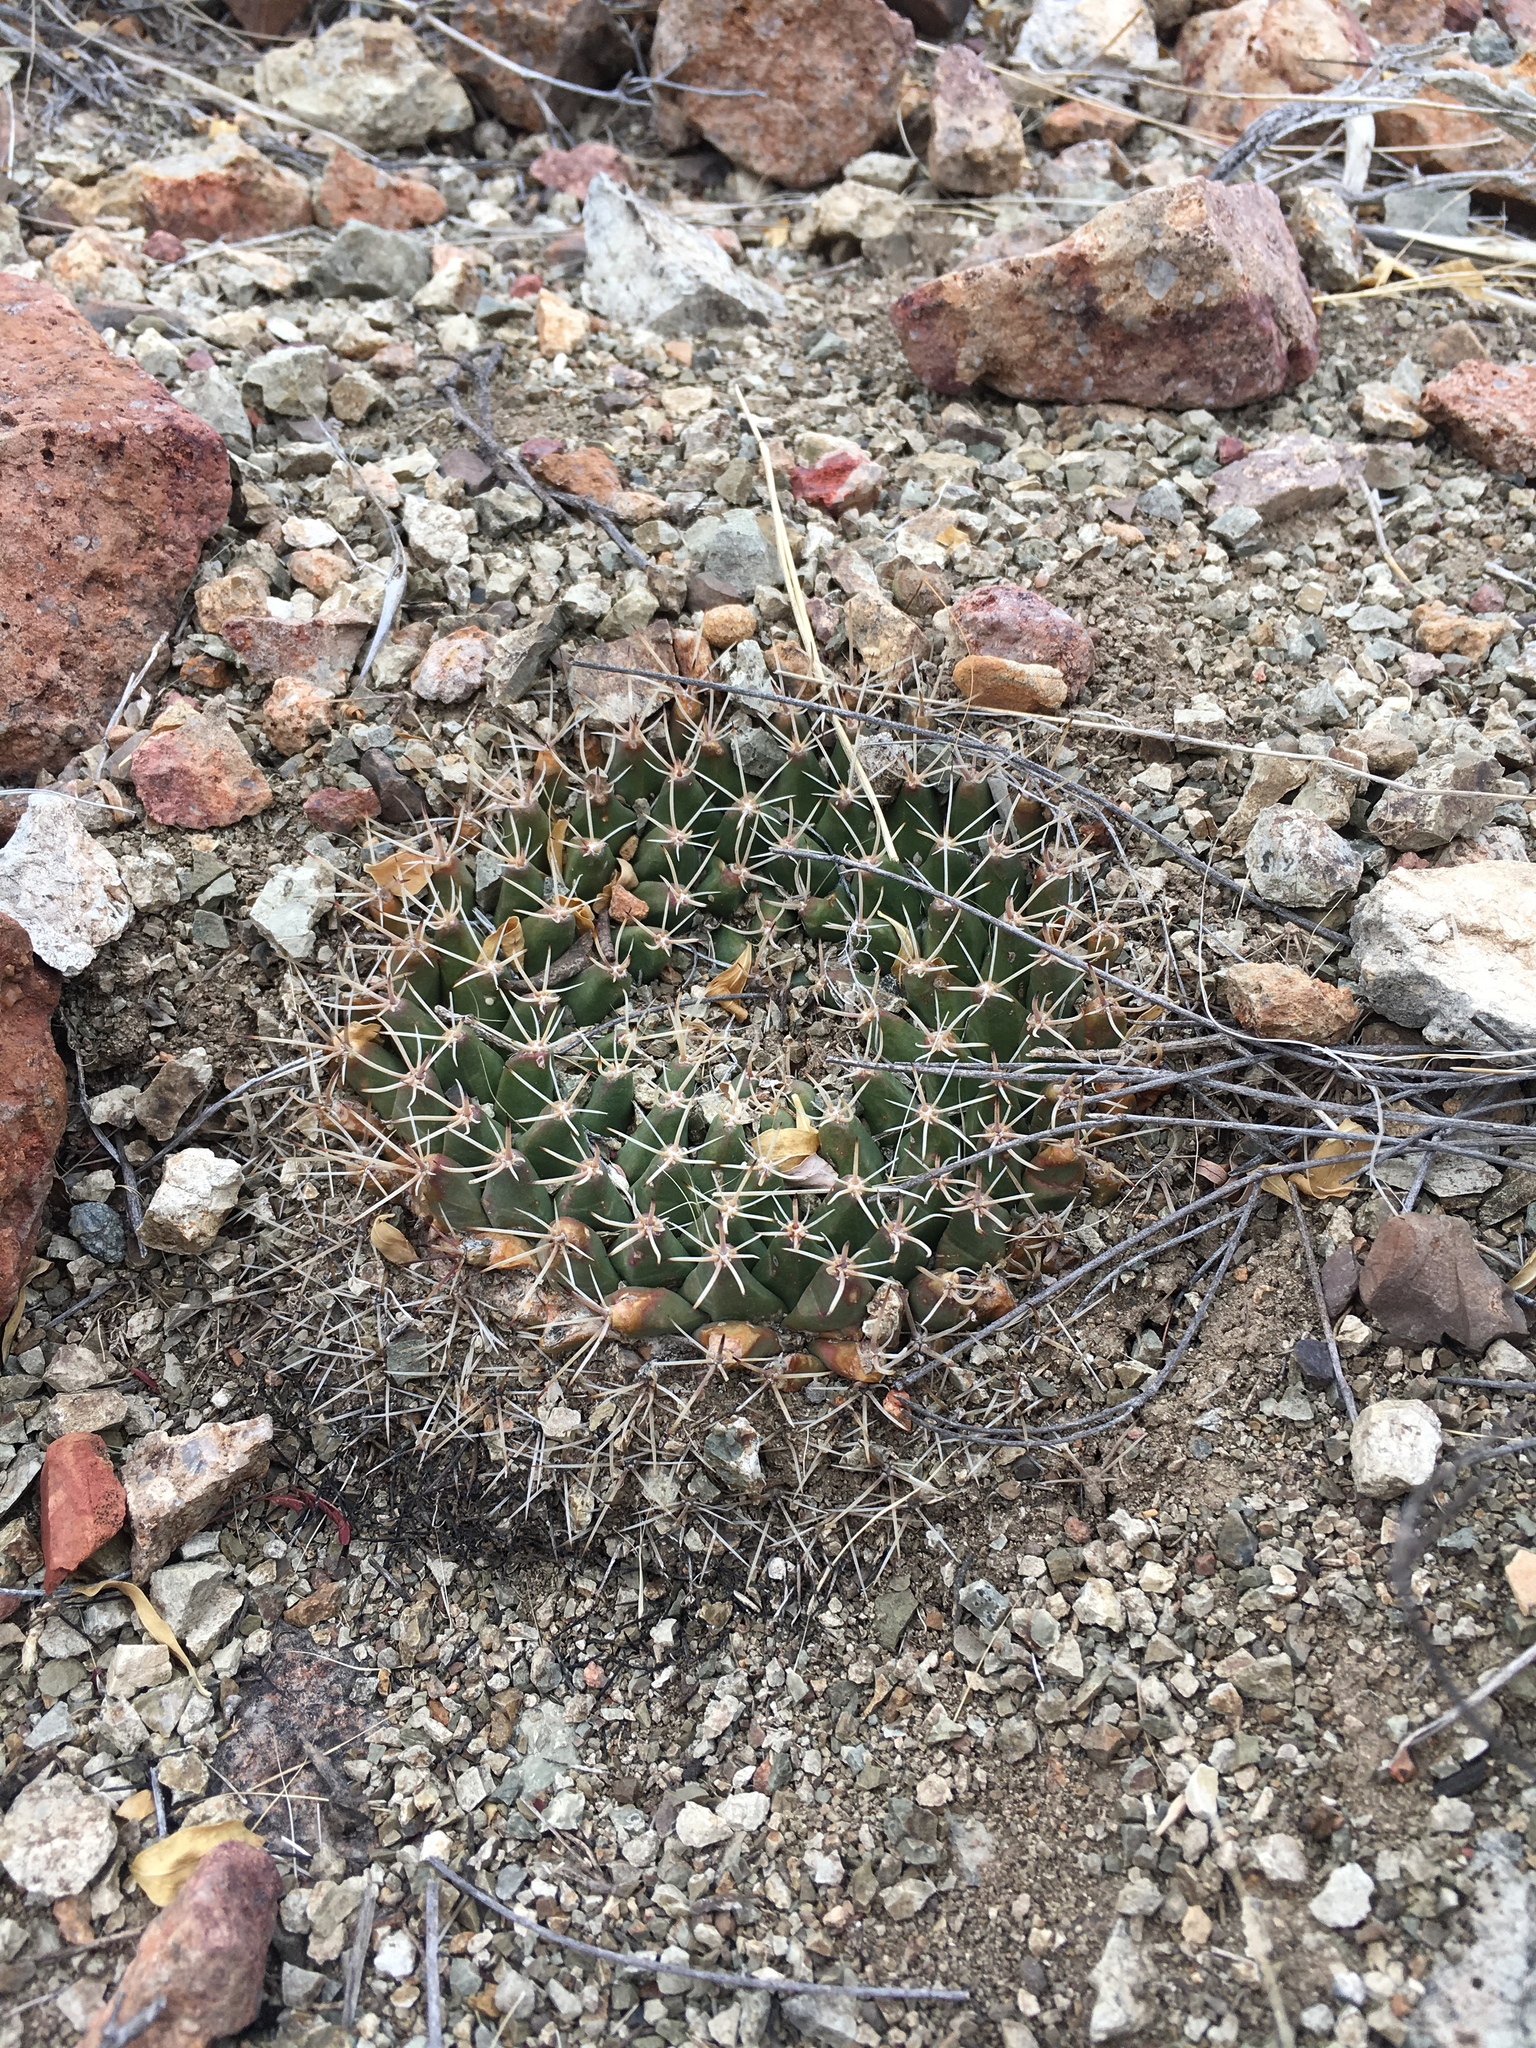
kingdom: Plantae
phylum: Tracheophyta
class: Magnoliopsida
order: Caryophyllales
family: Cactaceae
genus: Mammillaria
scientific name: Mammillaria heyderi
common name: Little nipple cactus
